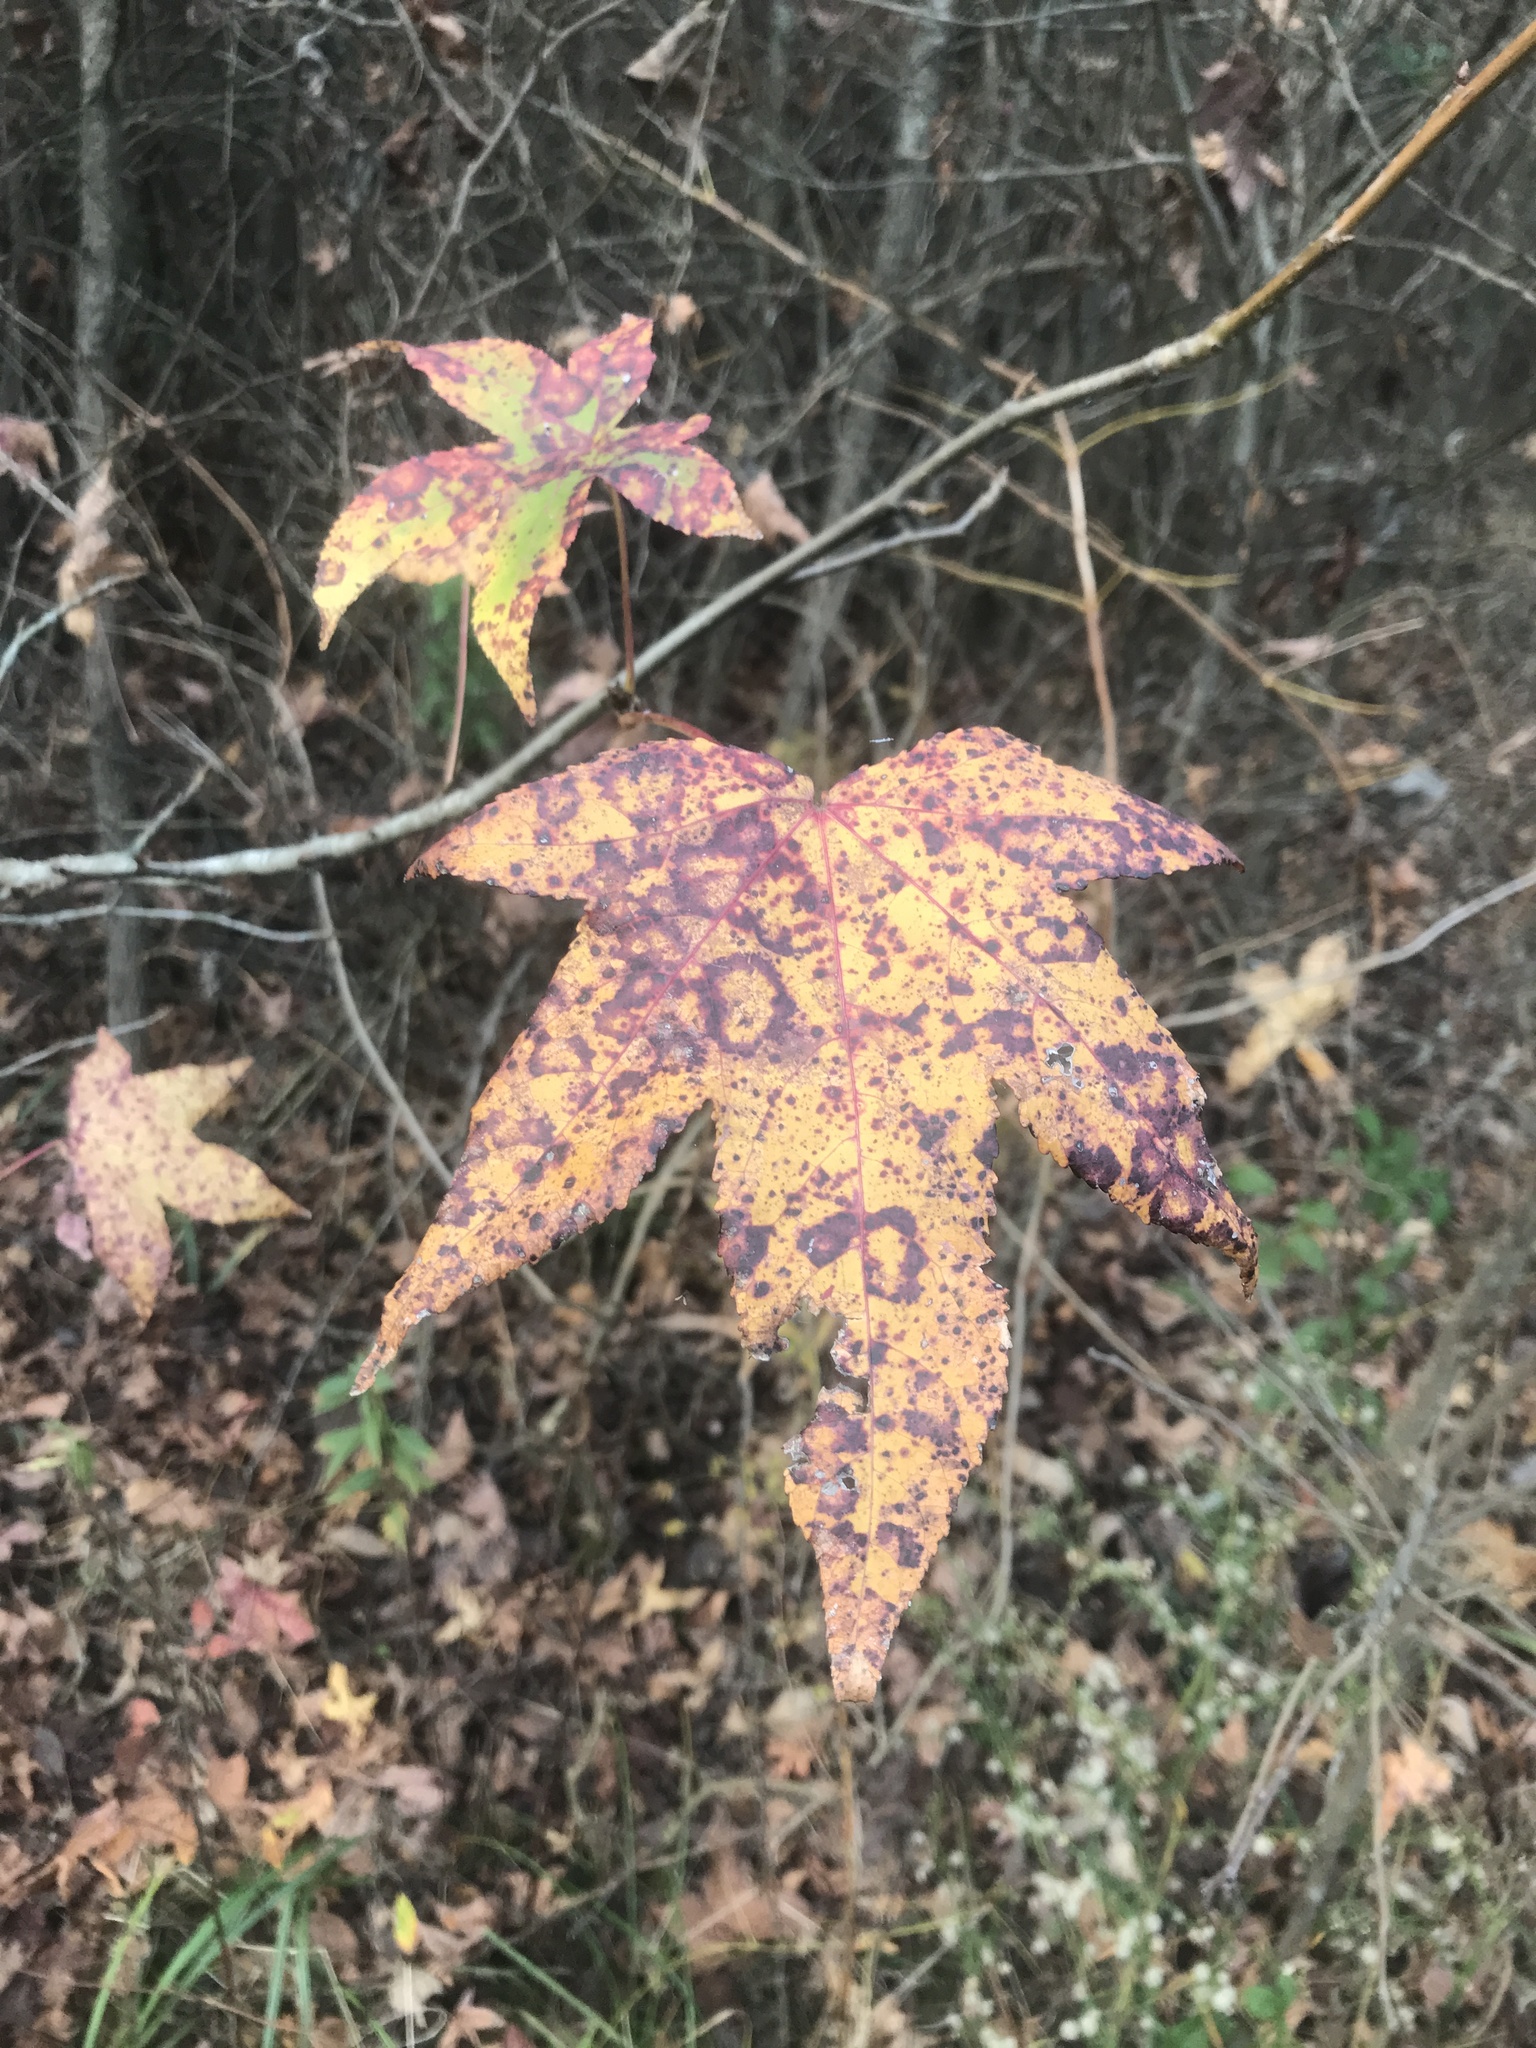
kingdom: Plantae
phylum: Tracheophyta
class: Magnoliopsida
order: Saxifragales
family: Altingiaceae
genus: Liquidambar
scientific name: Liquidambar styraciflua
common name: Sweet gum
